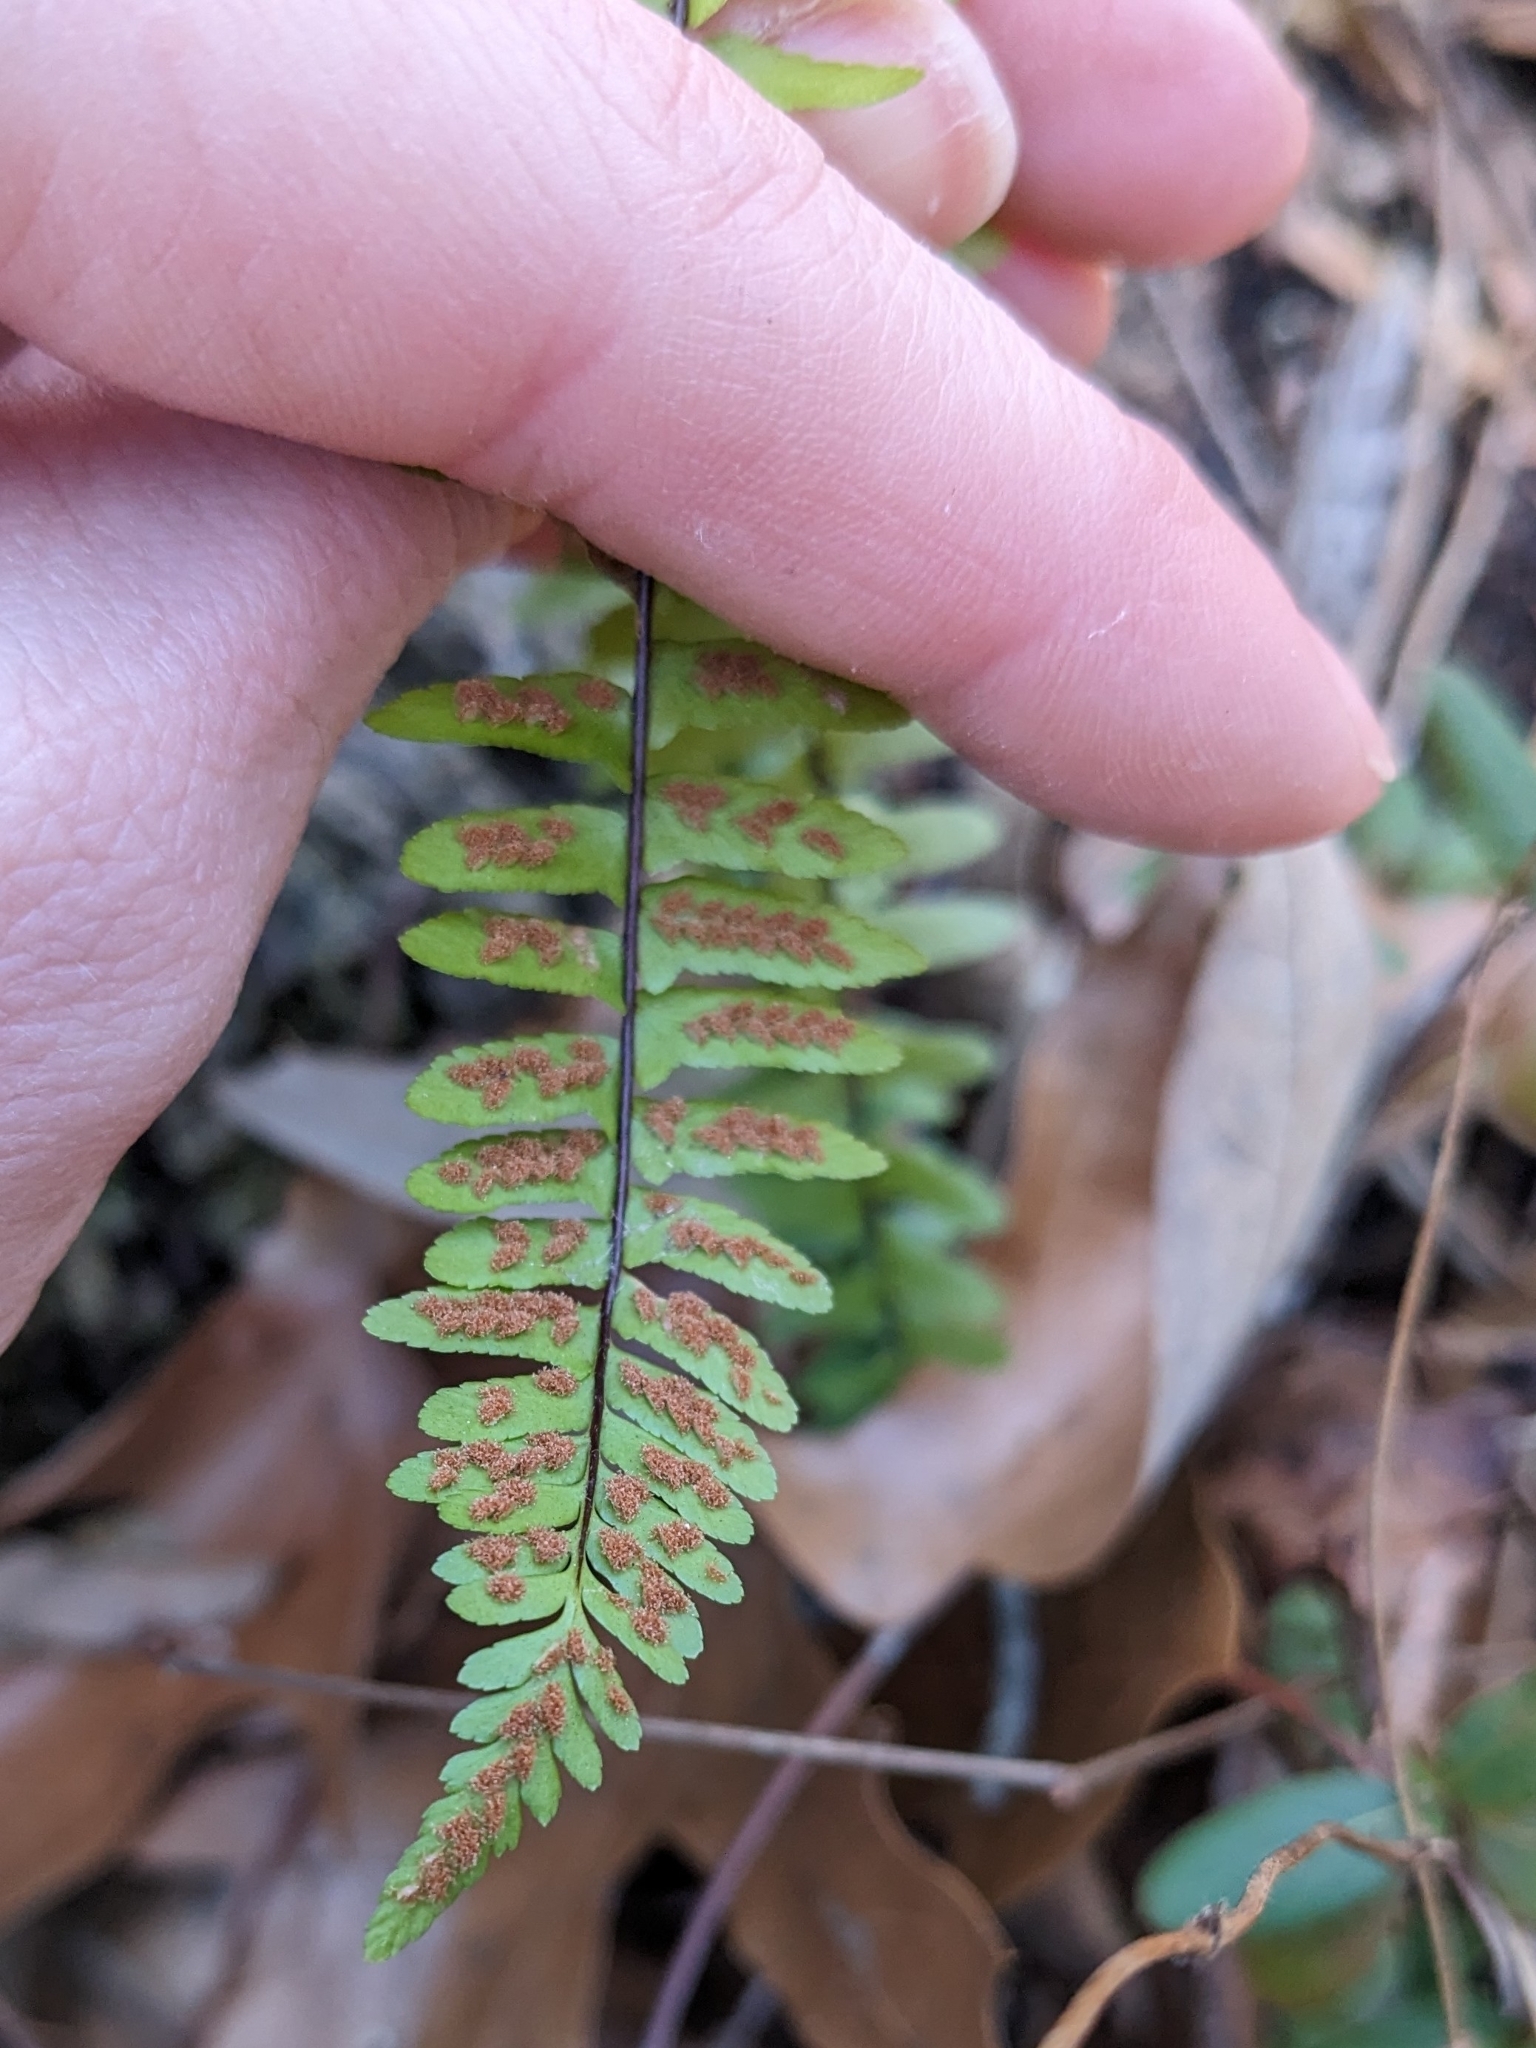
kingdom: Plantae
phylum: Tracheophyta
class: Polypodiopsida
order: Polypodiales
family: Aspleniaceae
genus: Asplenium
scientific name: Asplenium platyneuron
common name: Ebony spleenwort
